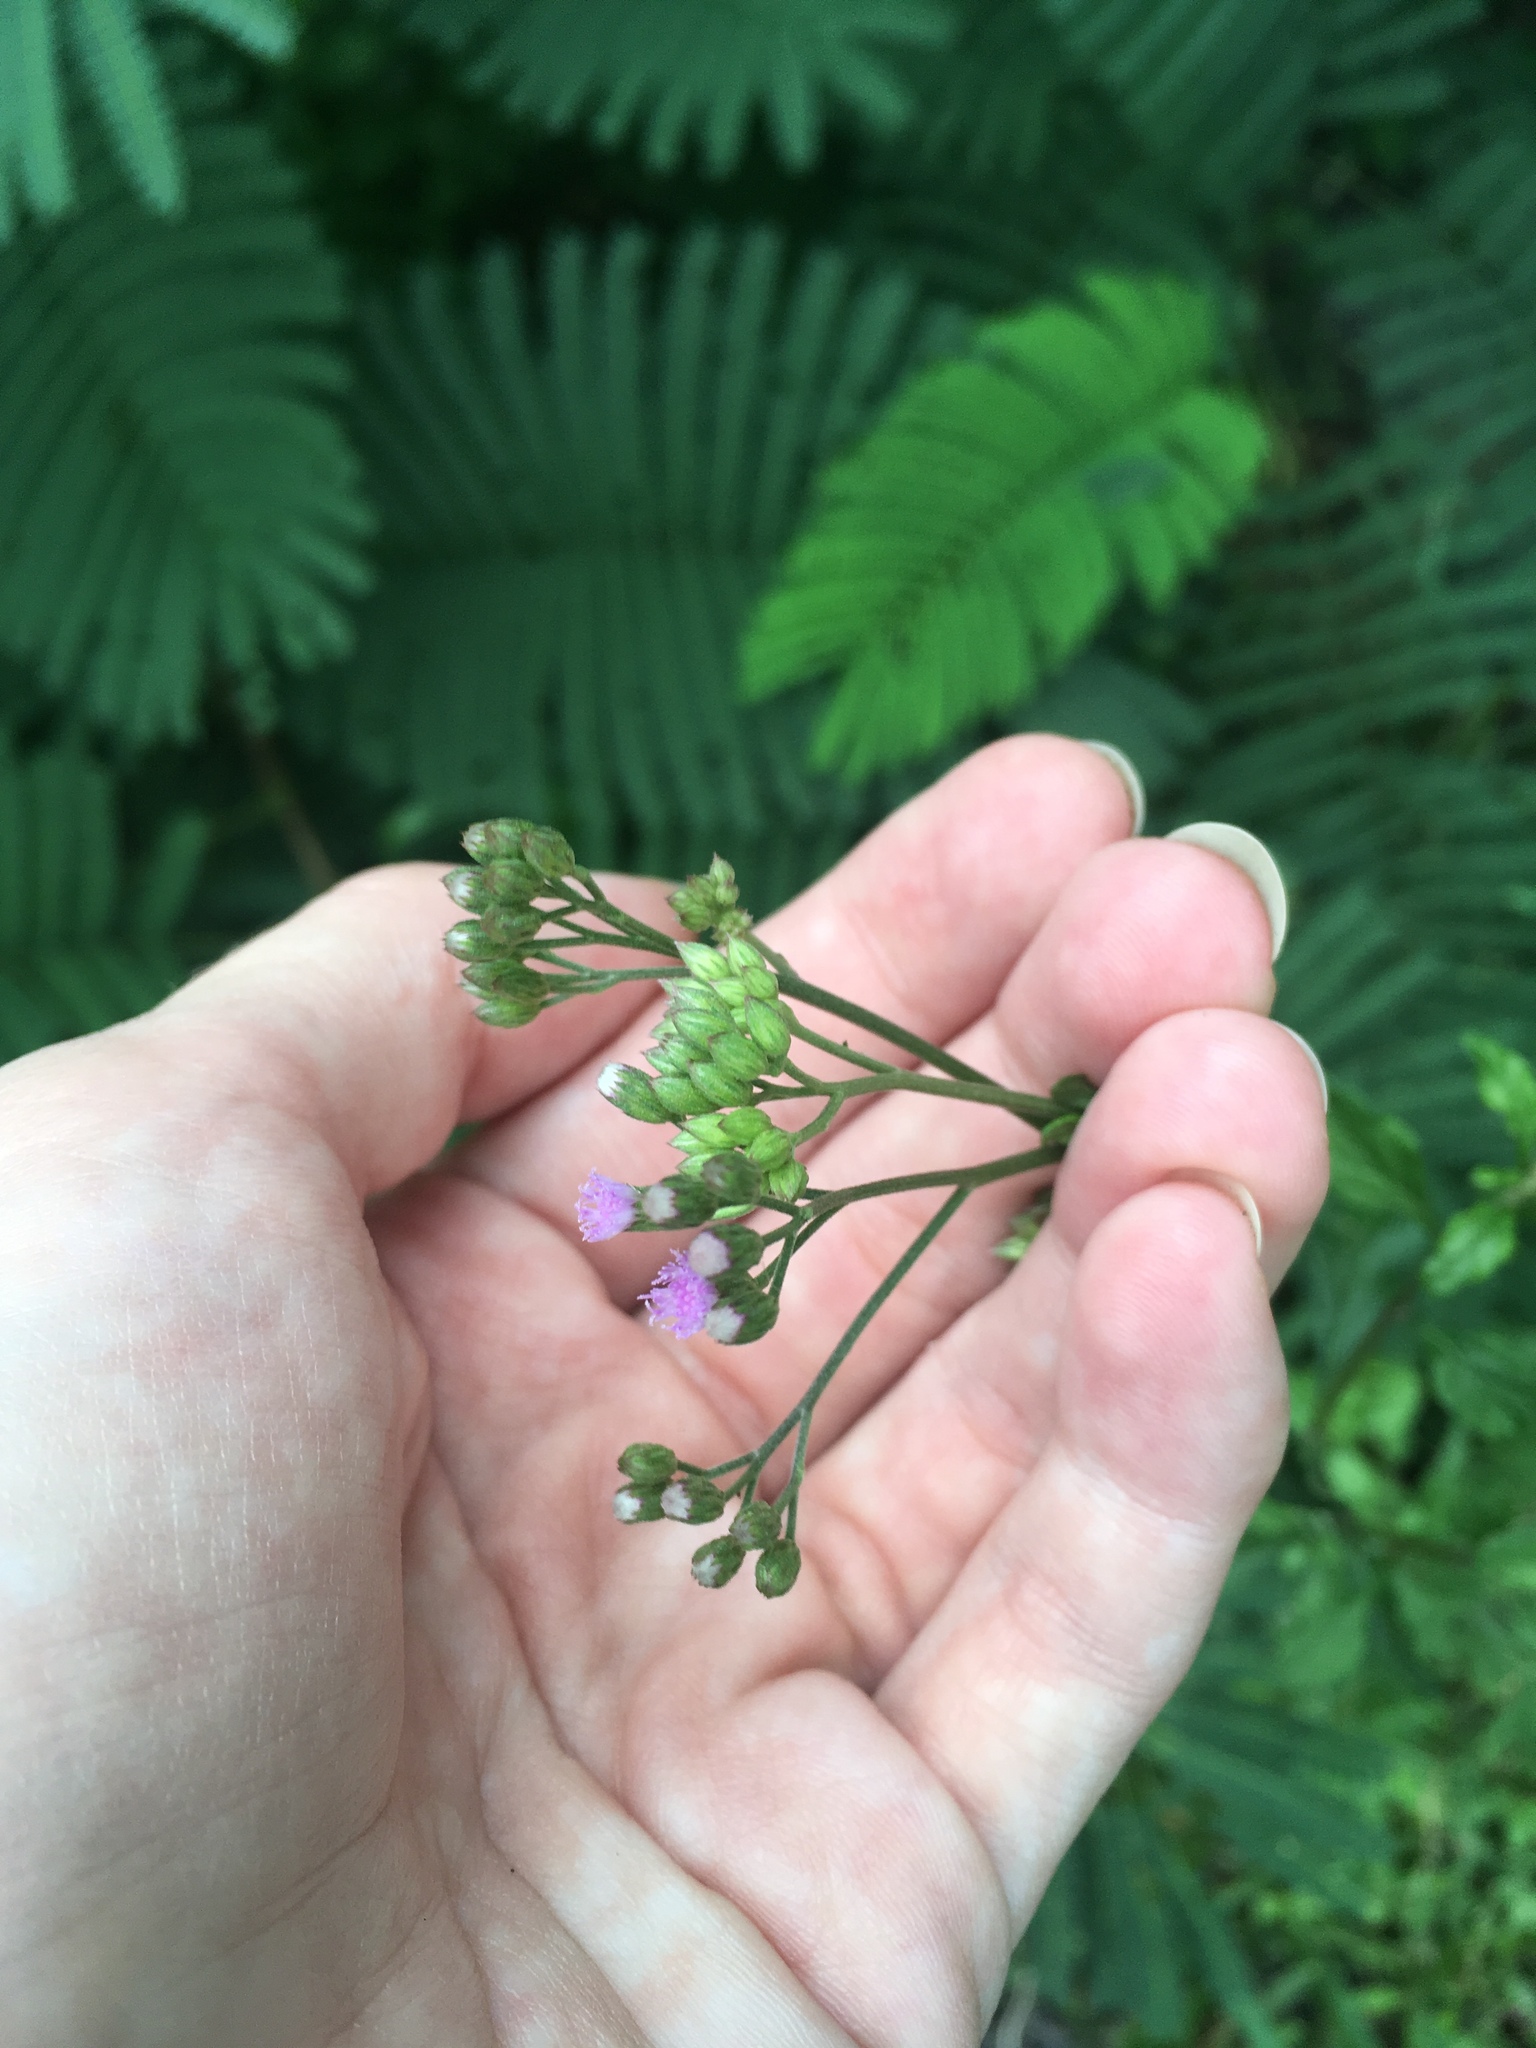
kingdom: Plantae
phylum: Tracheophyta
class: Magnoliopsida
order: Asterales
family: Asteraceae
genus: Cyanthillium
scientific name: Cyanthillium cinereum
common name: Little ironweed
